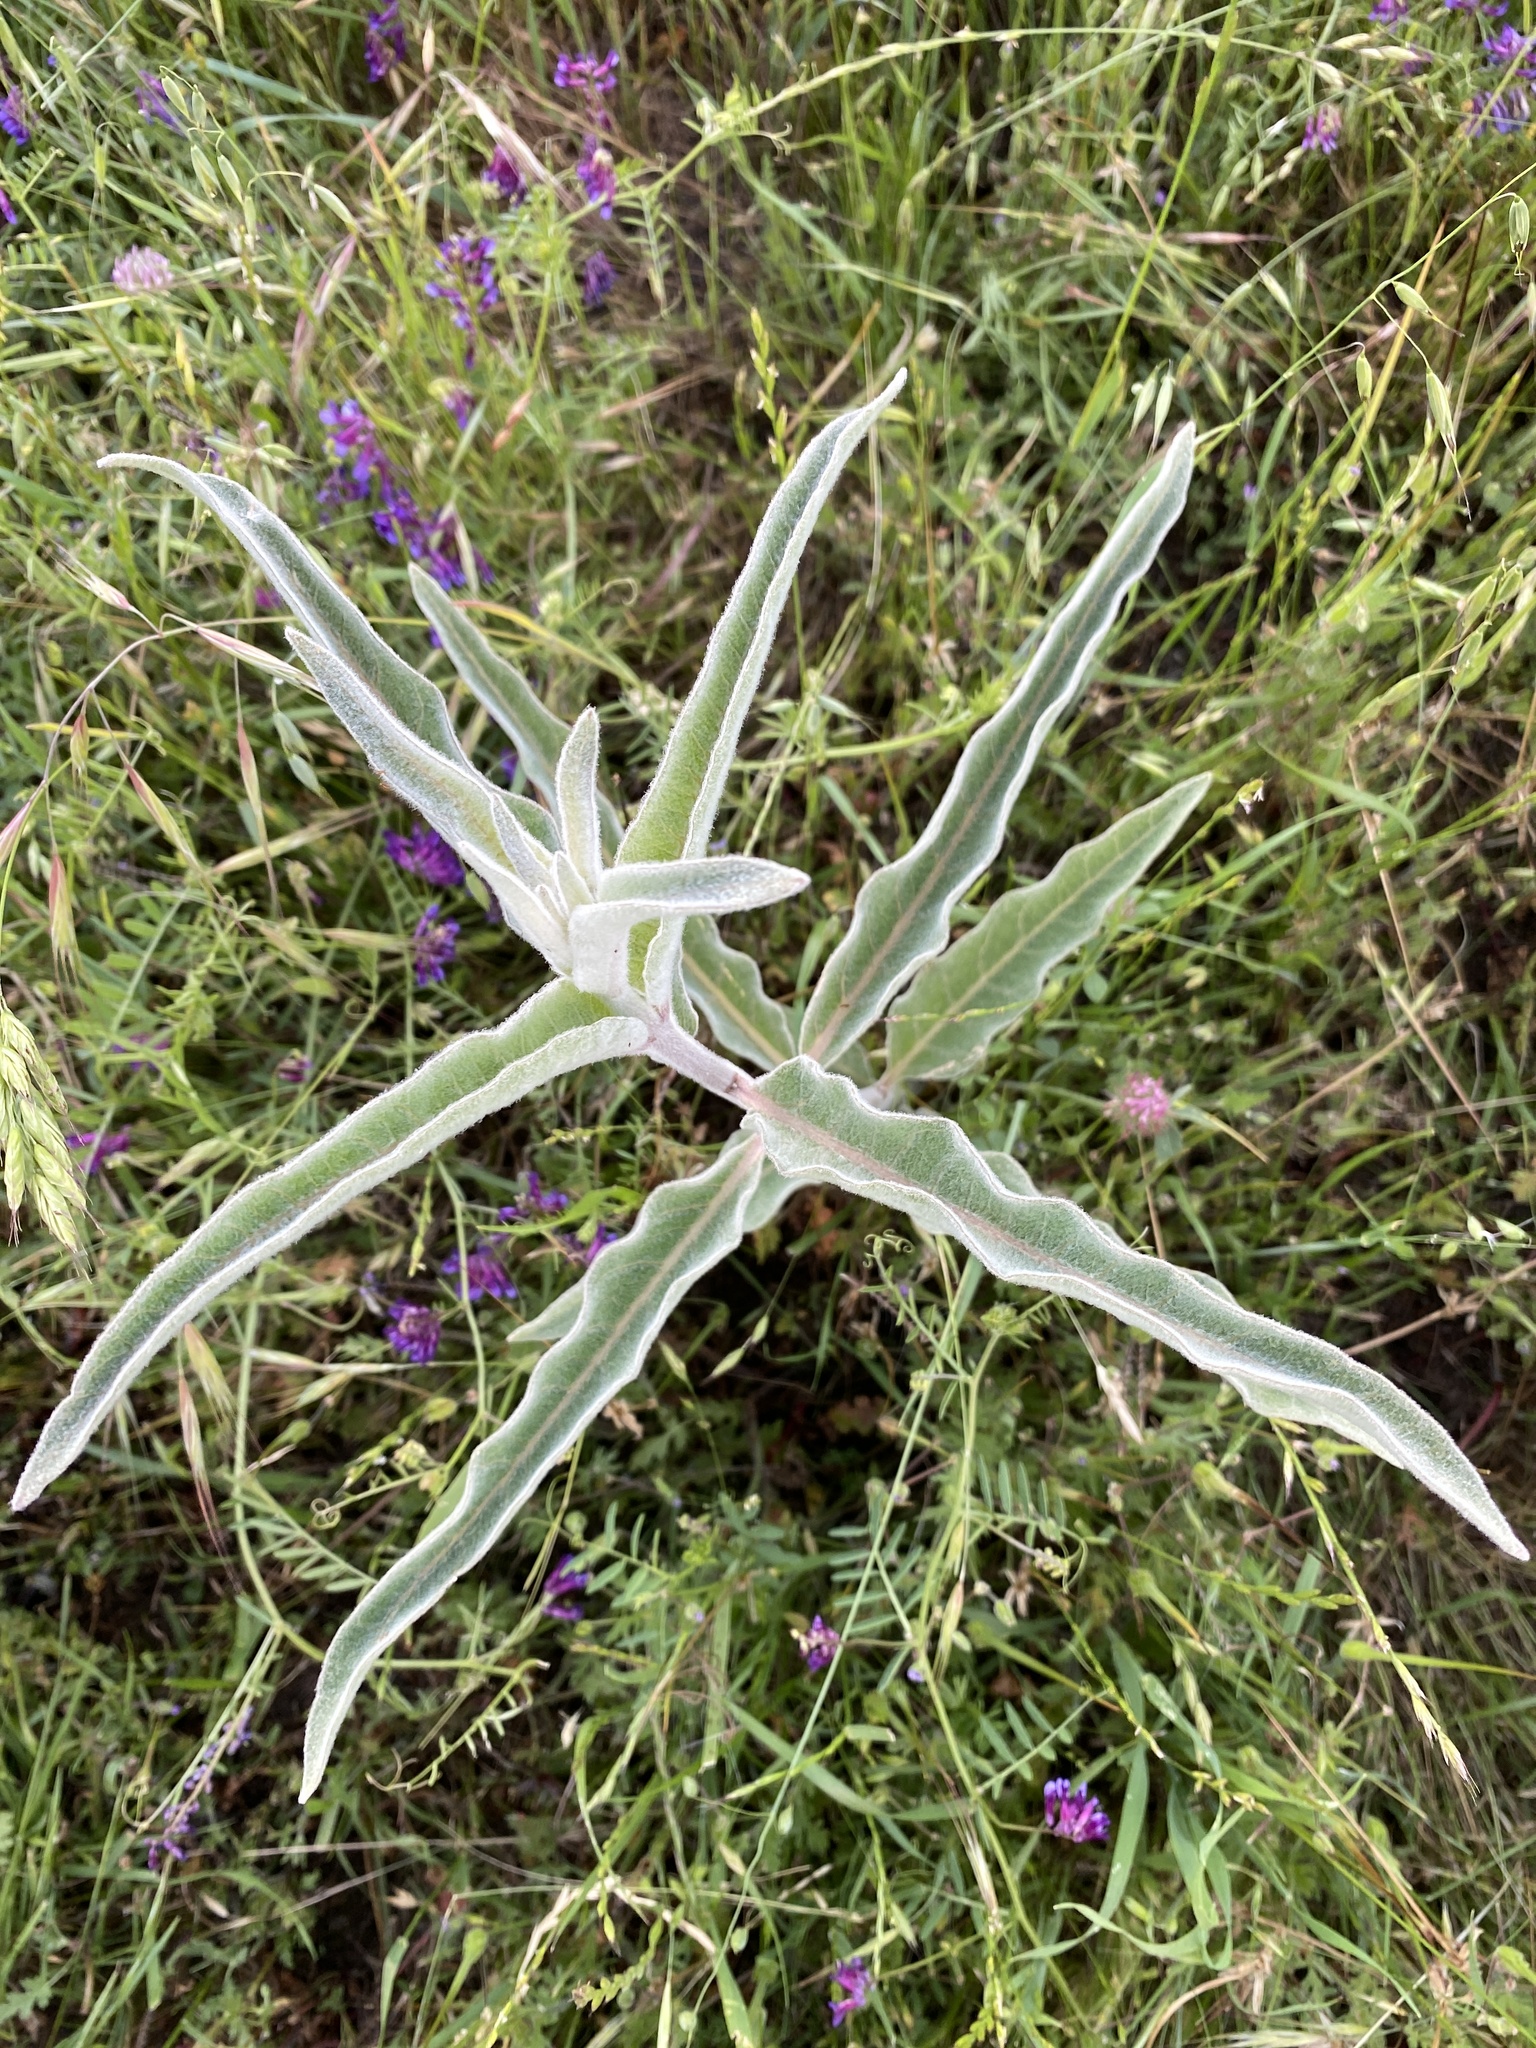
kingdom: Plantae
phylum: Tracheophyta
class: Magnoliopsida
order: Gentianales
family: Apocynaceae
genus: Asclepias
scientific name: Asclepias eriocarpa
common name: Indian milkweed
